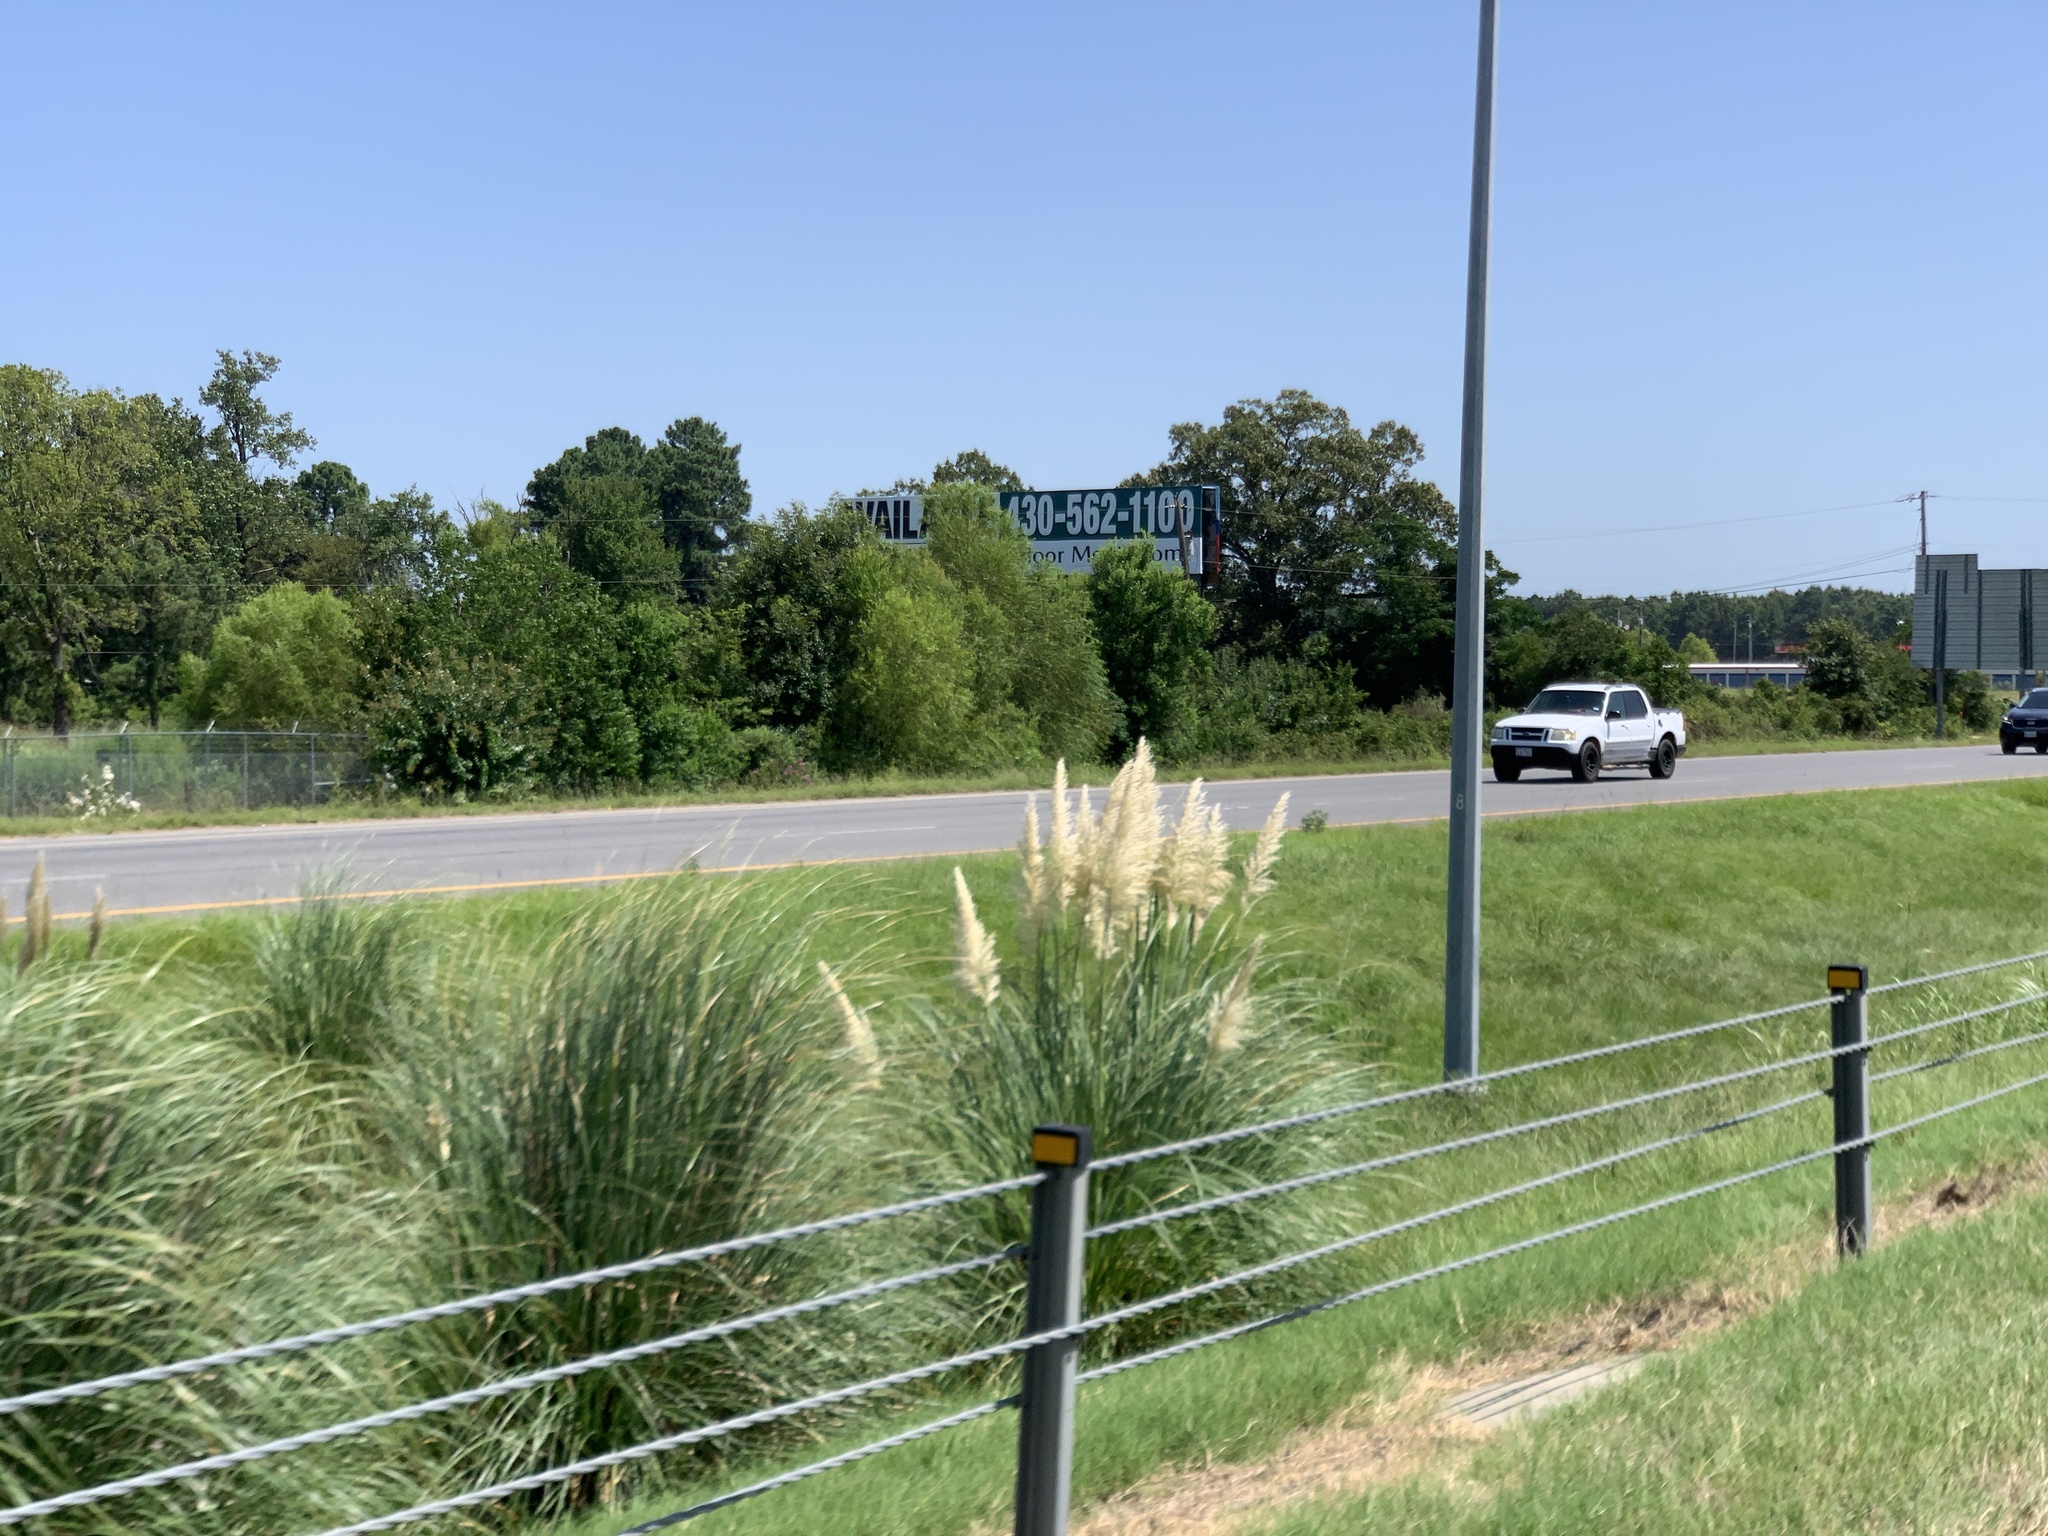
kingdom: Plantae
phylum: Tracheophyta
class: Liliopsida
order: Poales
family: Poaceae
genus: Cortaderia
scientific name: Cortaderia selloana
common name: Uruguayan pampas grass
